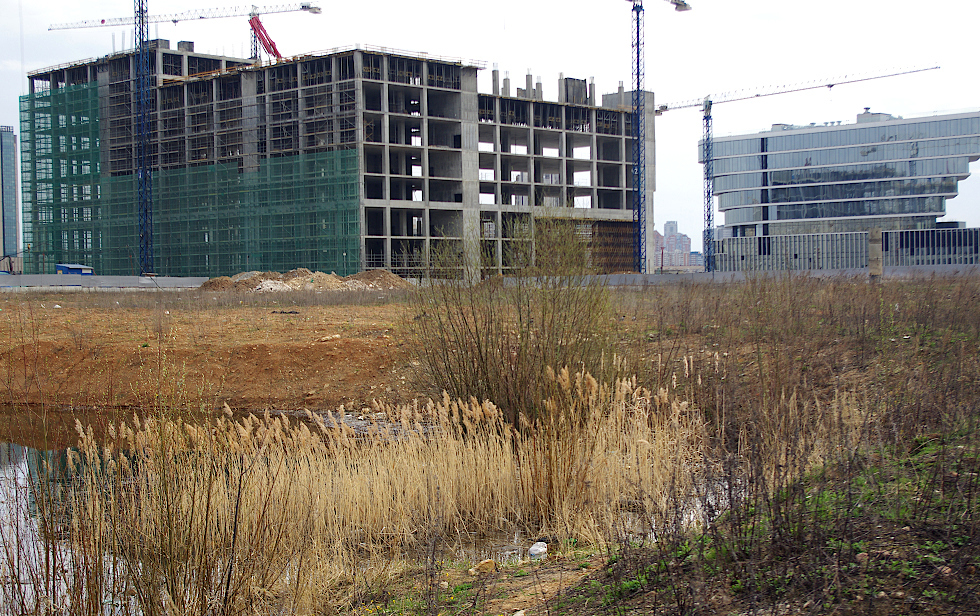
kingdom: Plantae
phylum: Tracheophyta
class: Liliopsida
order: Poales
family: Poaceae
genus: Phragmites
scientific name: Phragmites australis
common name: Common reed
